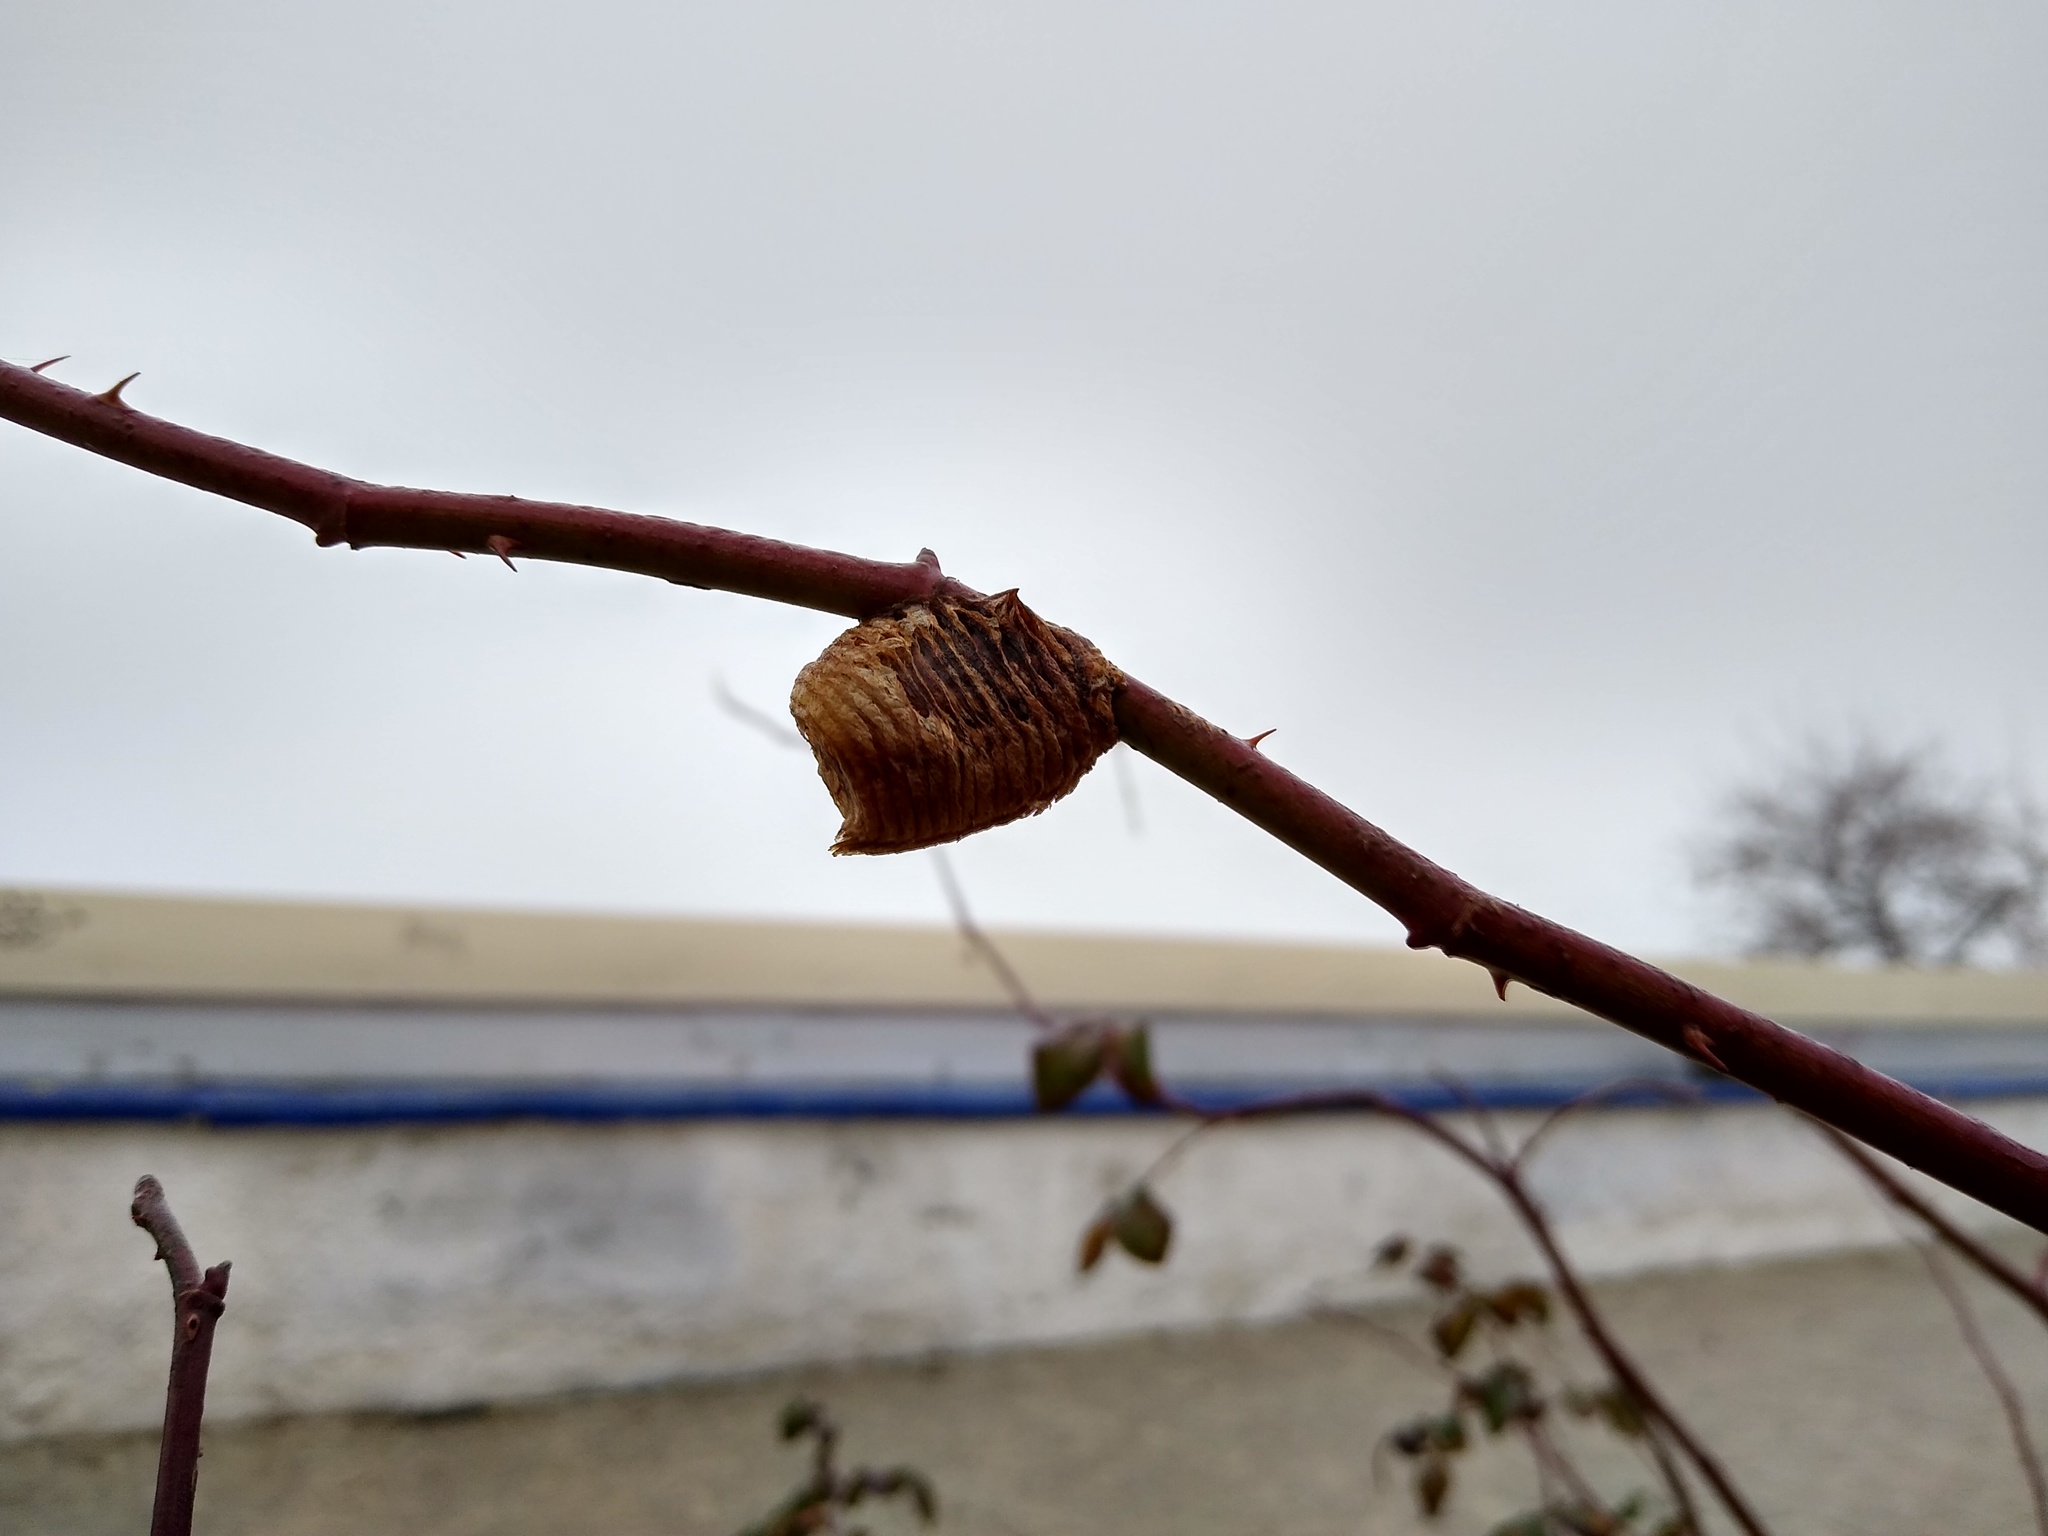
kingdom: Animalia
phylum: Arthropoda
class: Insecta
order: Mantodea
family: Mantidae
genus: Hierodula
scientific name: Hierodula transcaucasica
